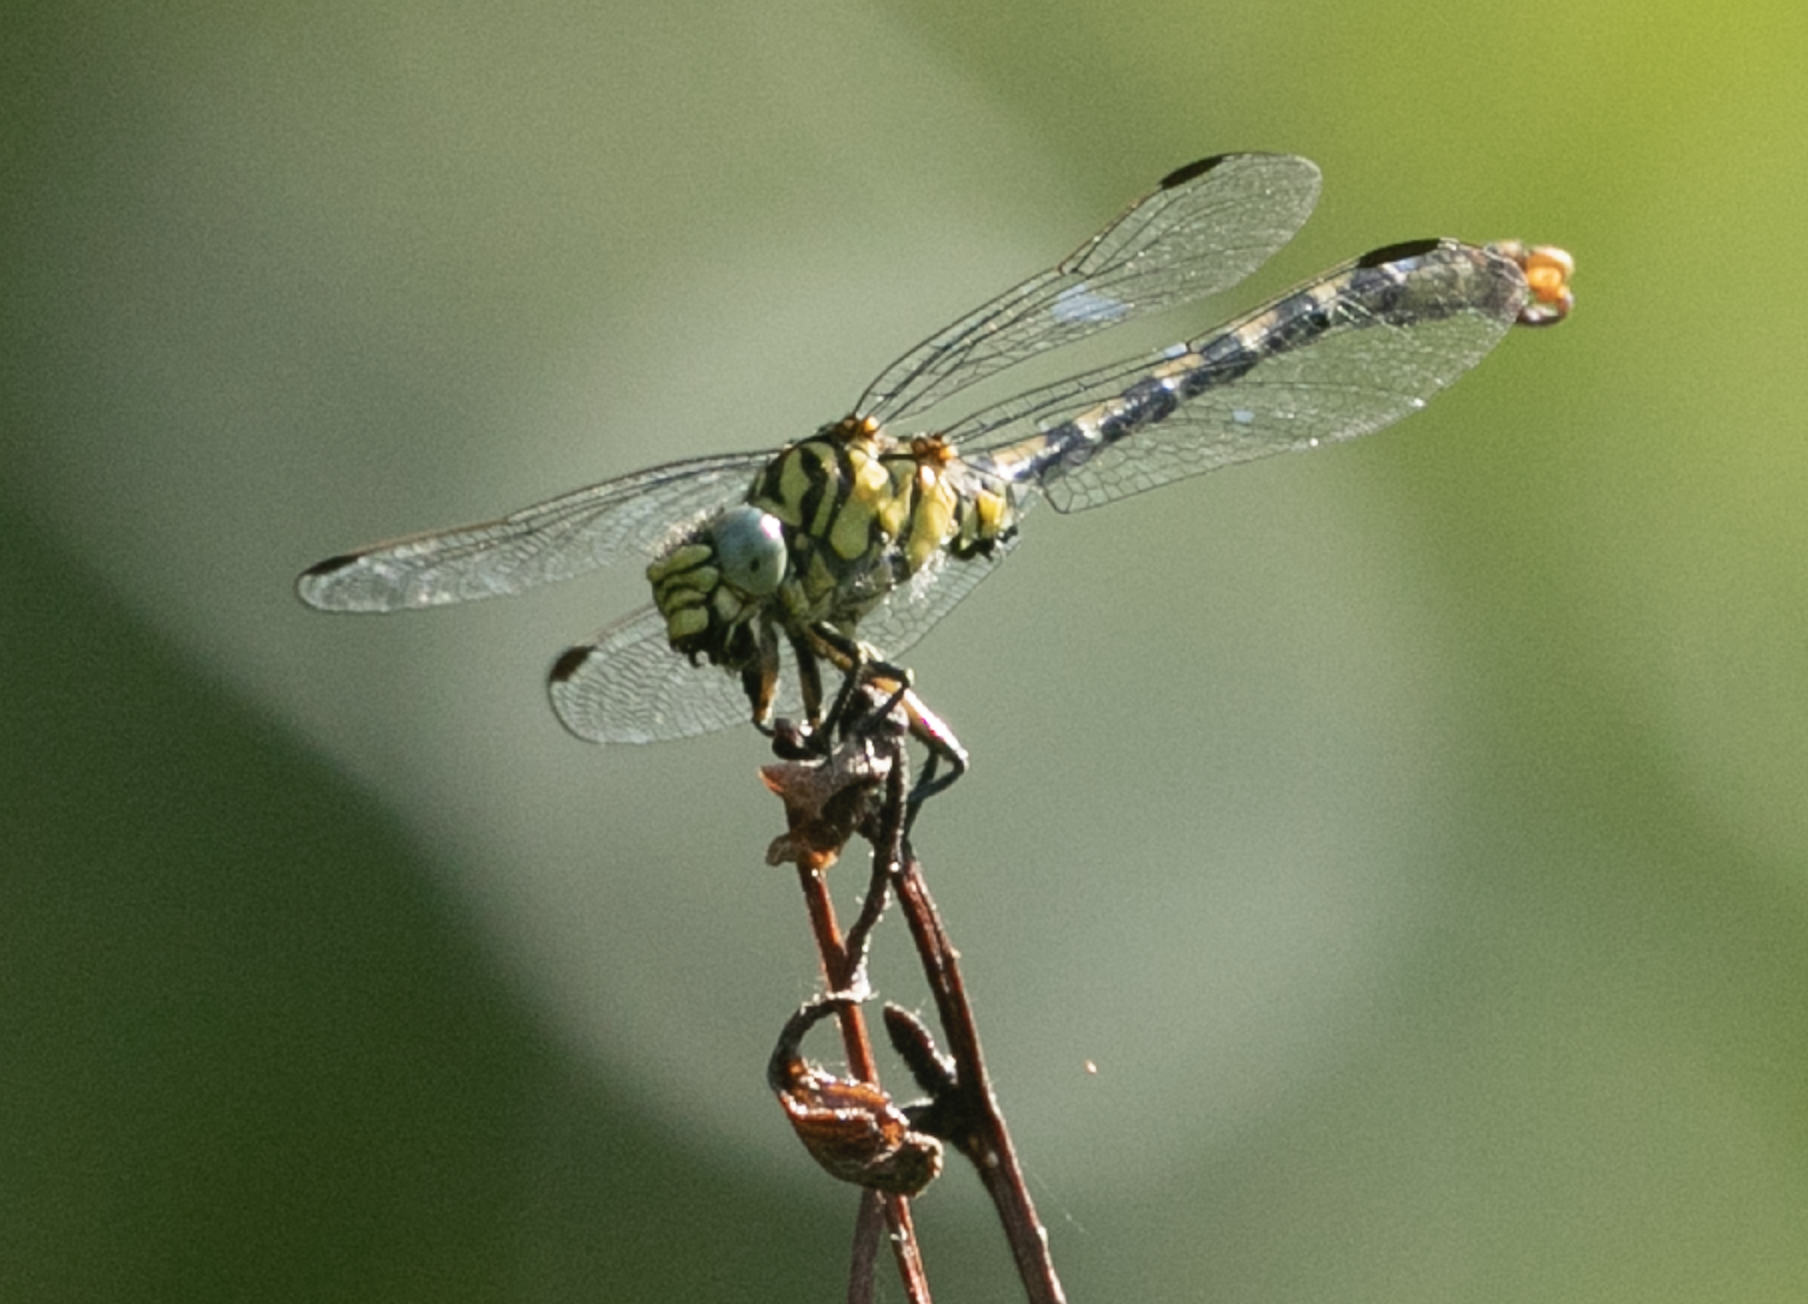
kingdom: Animalia
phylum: Arthropoda
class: Insecta
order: Odonata
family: Gomphidae
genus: Onychogomphus
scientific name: Onychogomphus forcipatus
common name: Small pincertail
